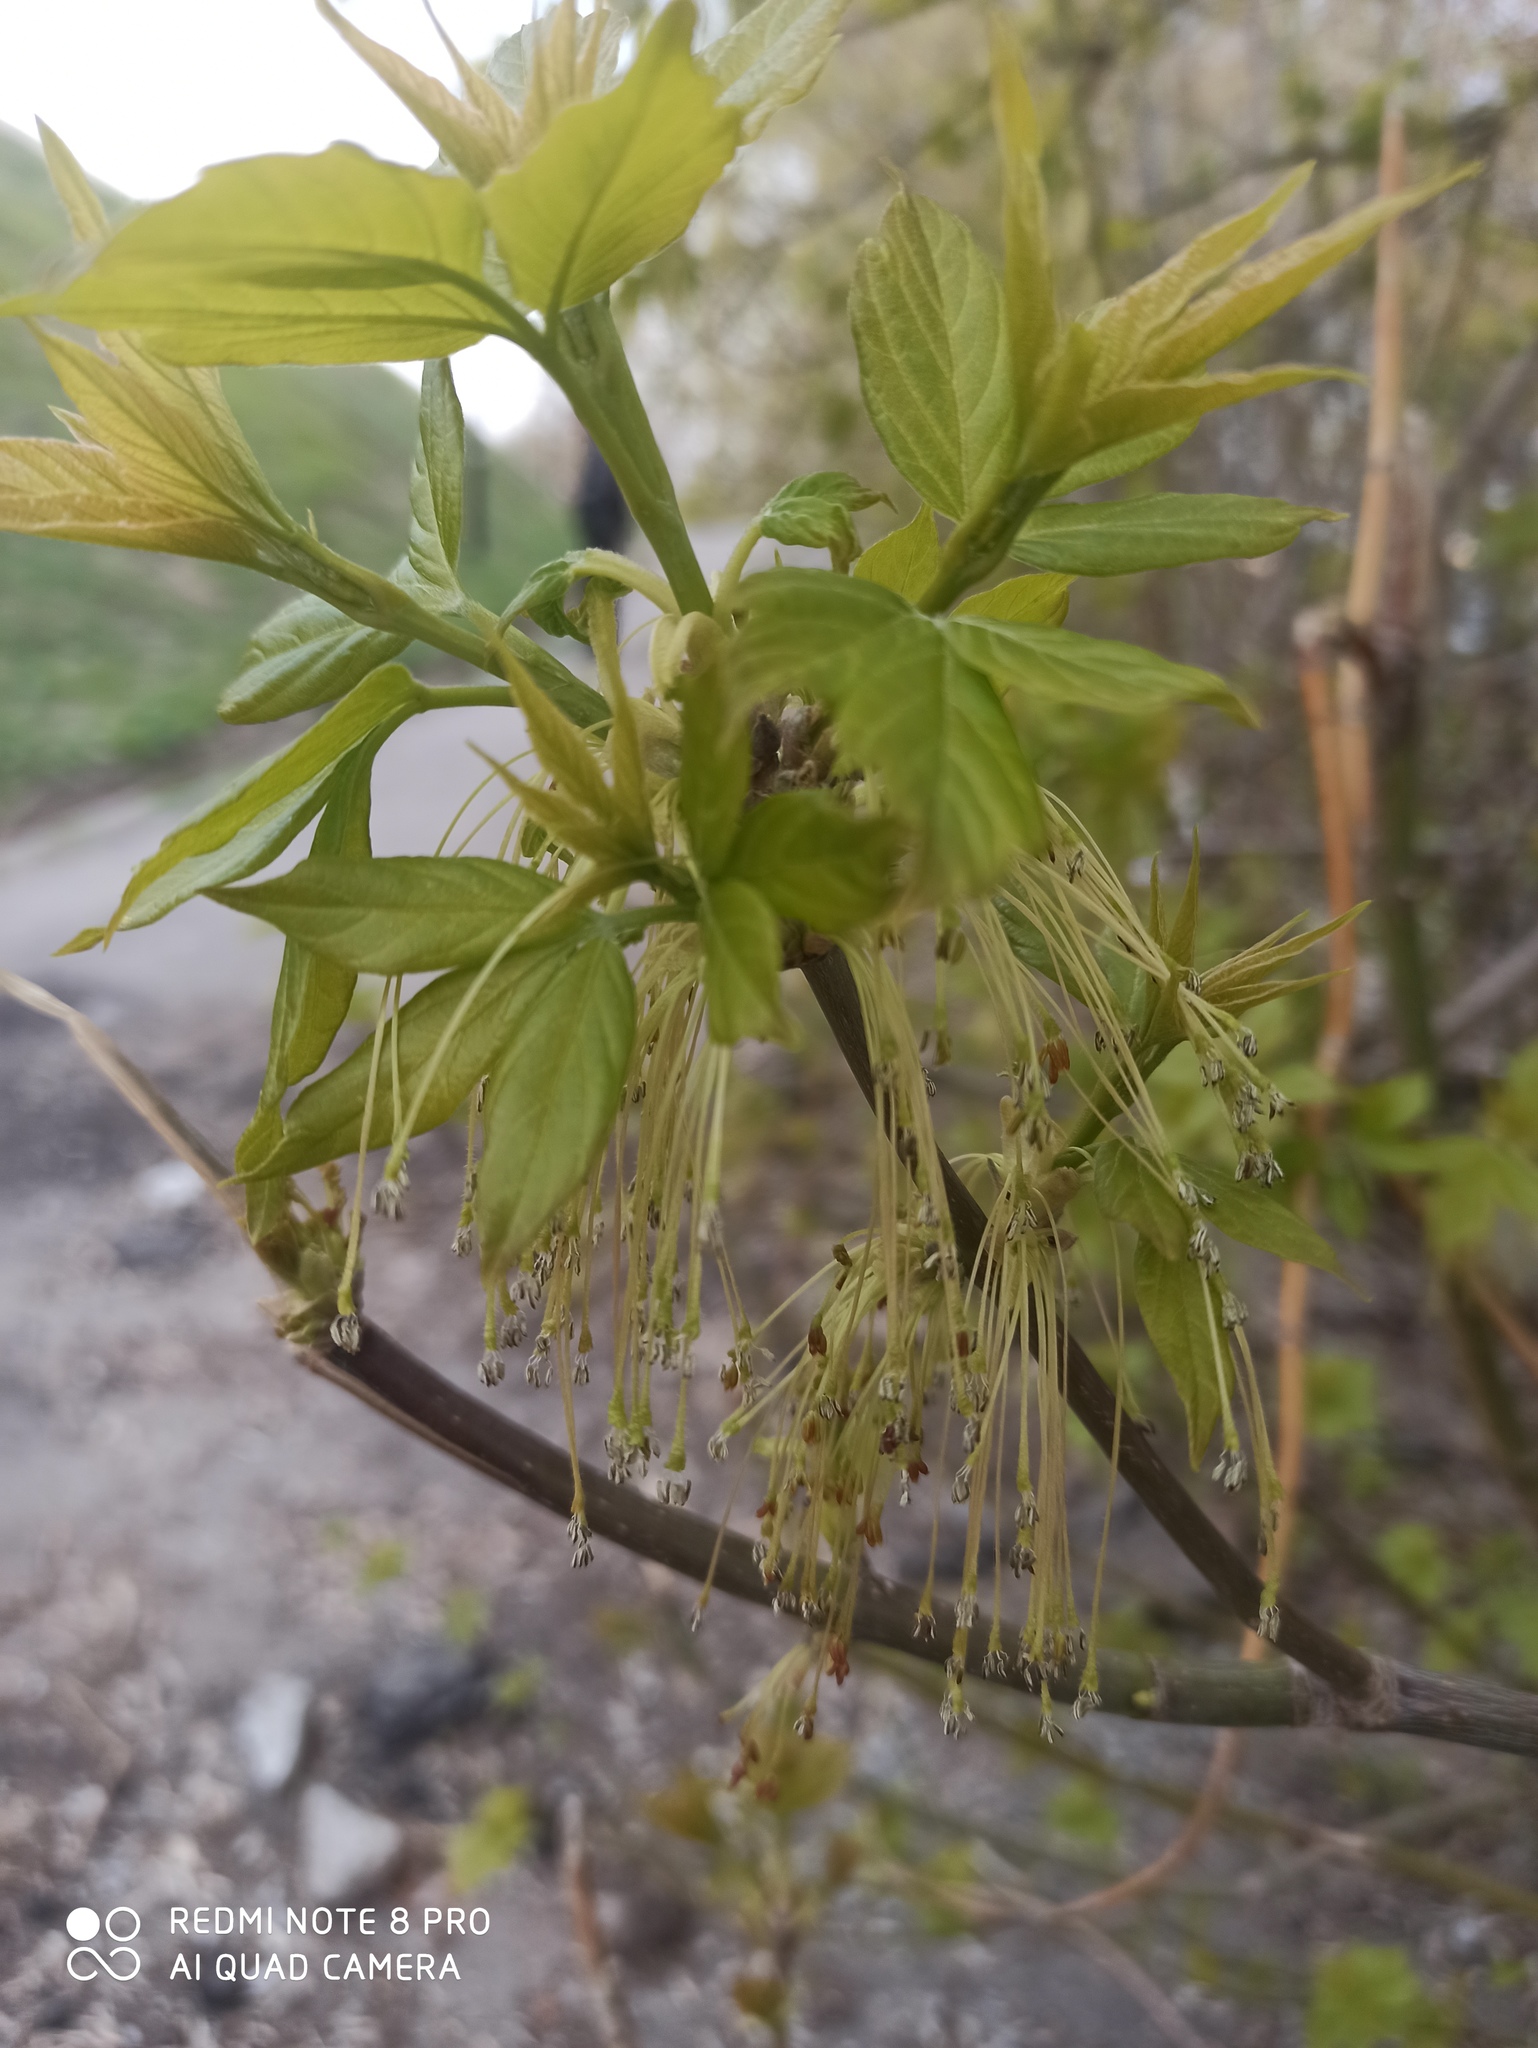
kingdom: Plantae
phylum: Tracheophyta
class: Magnoliopsida
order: Sapindales
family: Sapindaceae
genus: Acer
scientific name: Acer negundo
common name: Ashleaf maple
